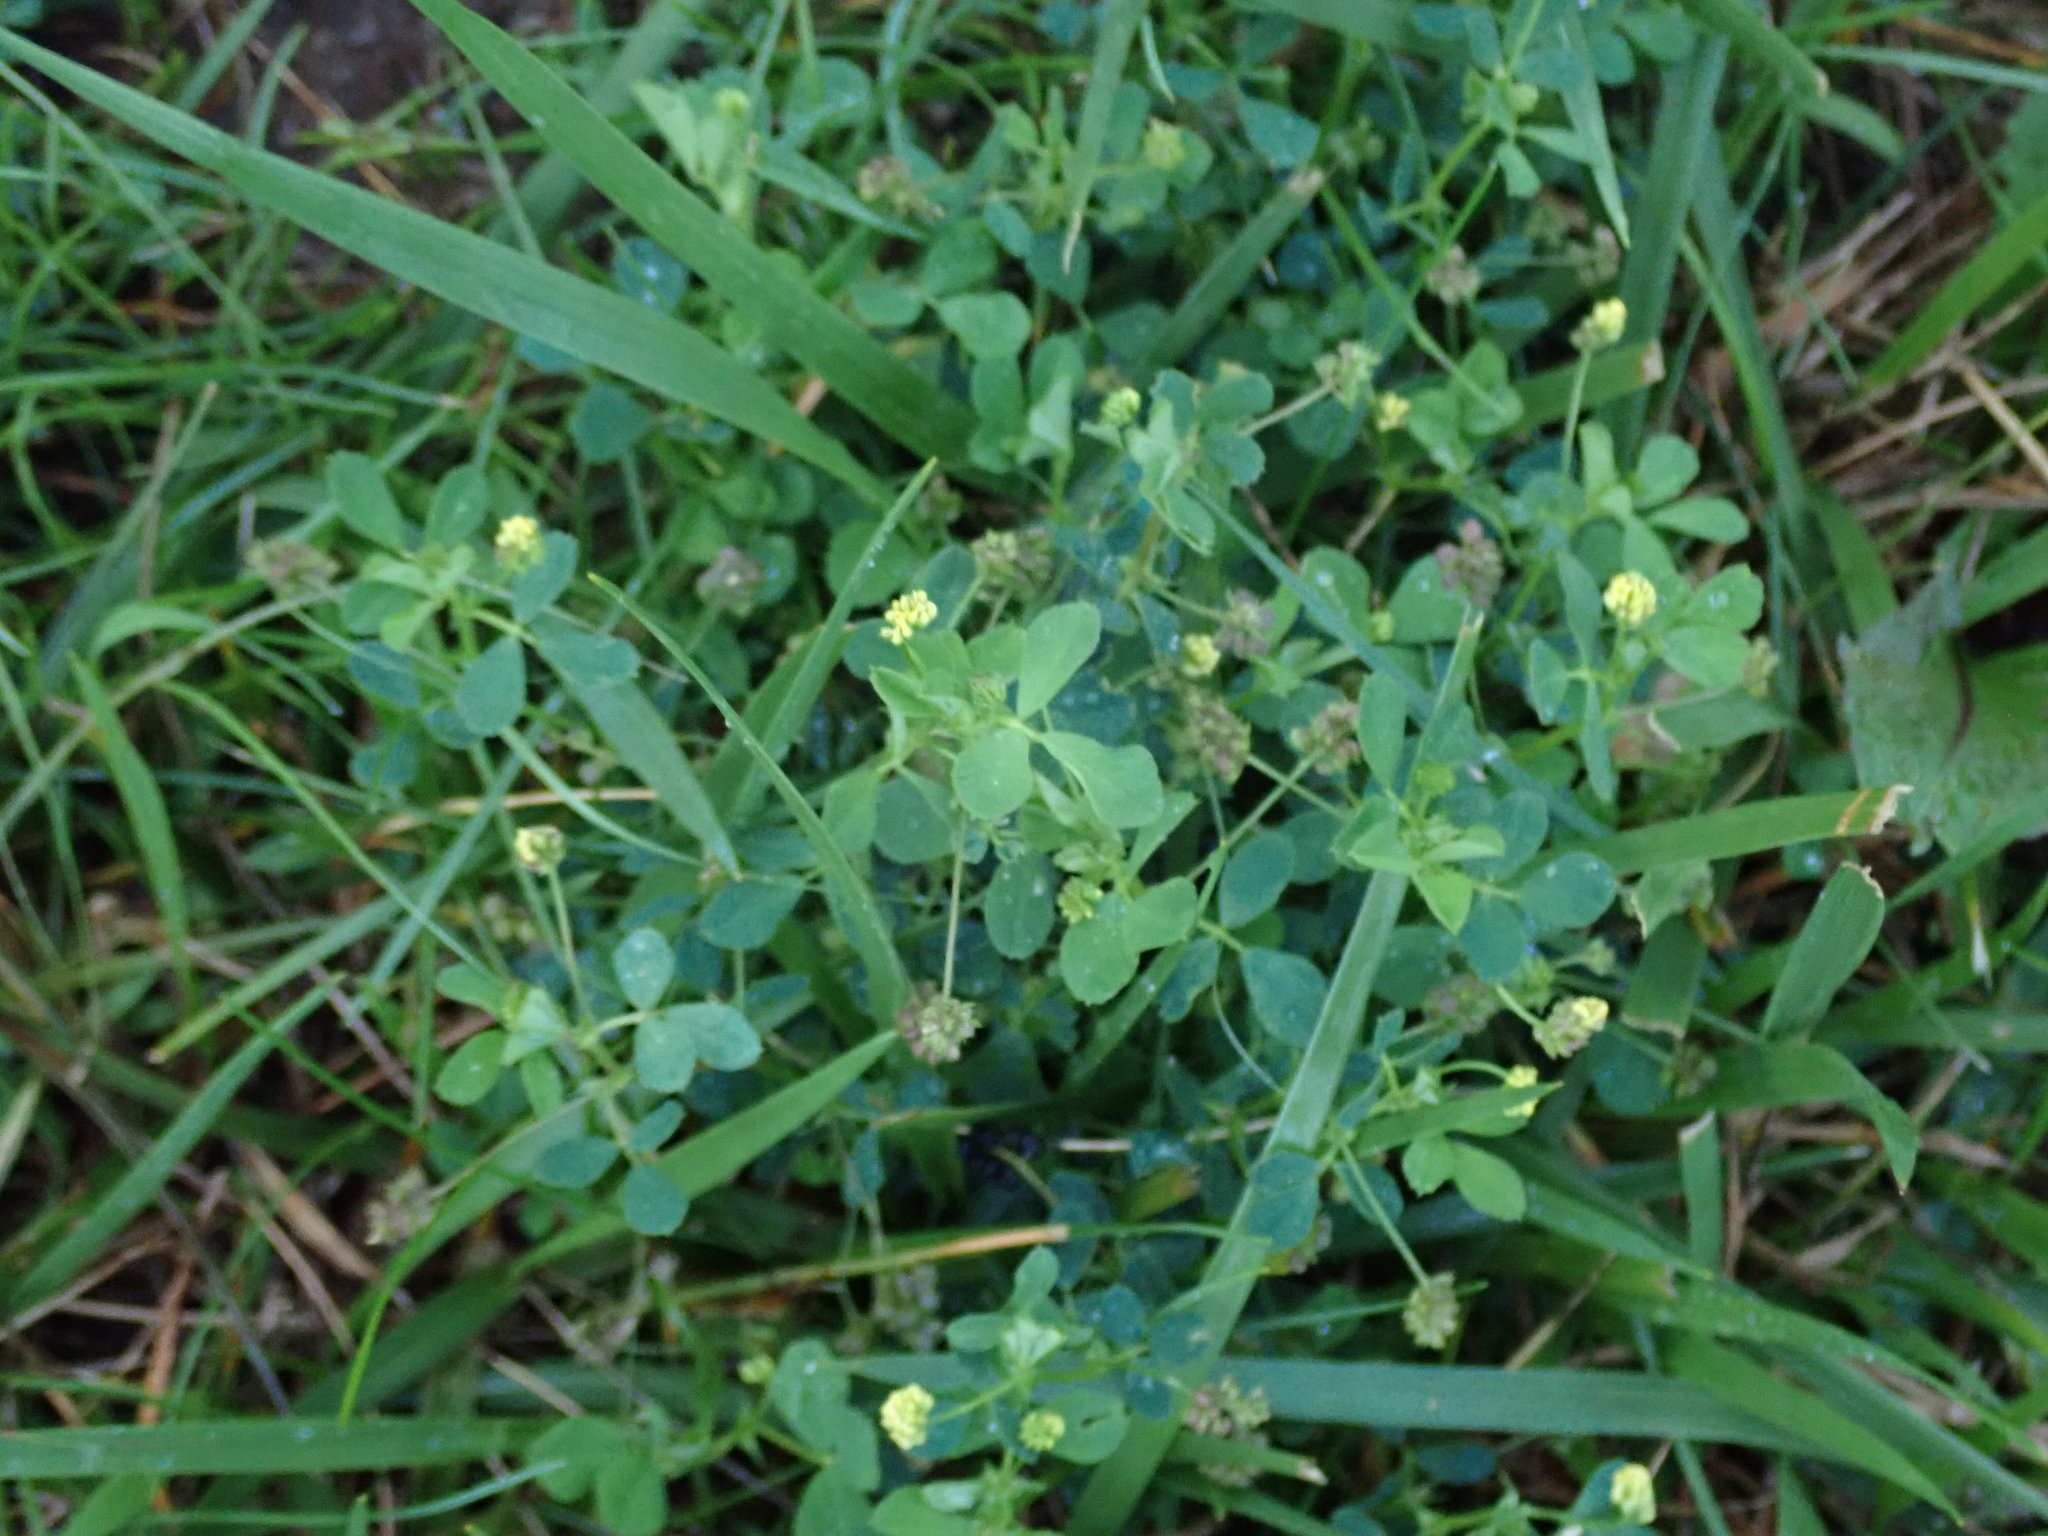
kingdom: Plantae
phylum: Tracheophyta
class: Magnoliopsida
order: Fabales
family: Fabaceae
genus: Medicago
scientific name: Medicago lupulina
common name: Black medick
